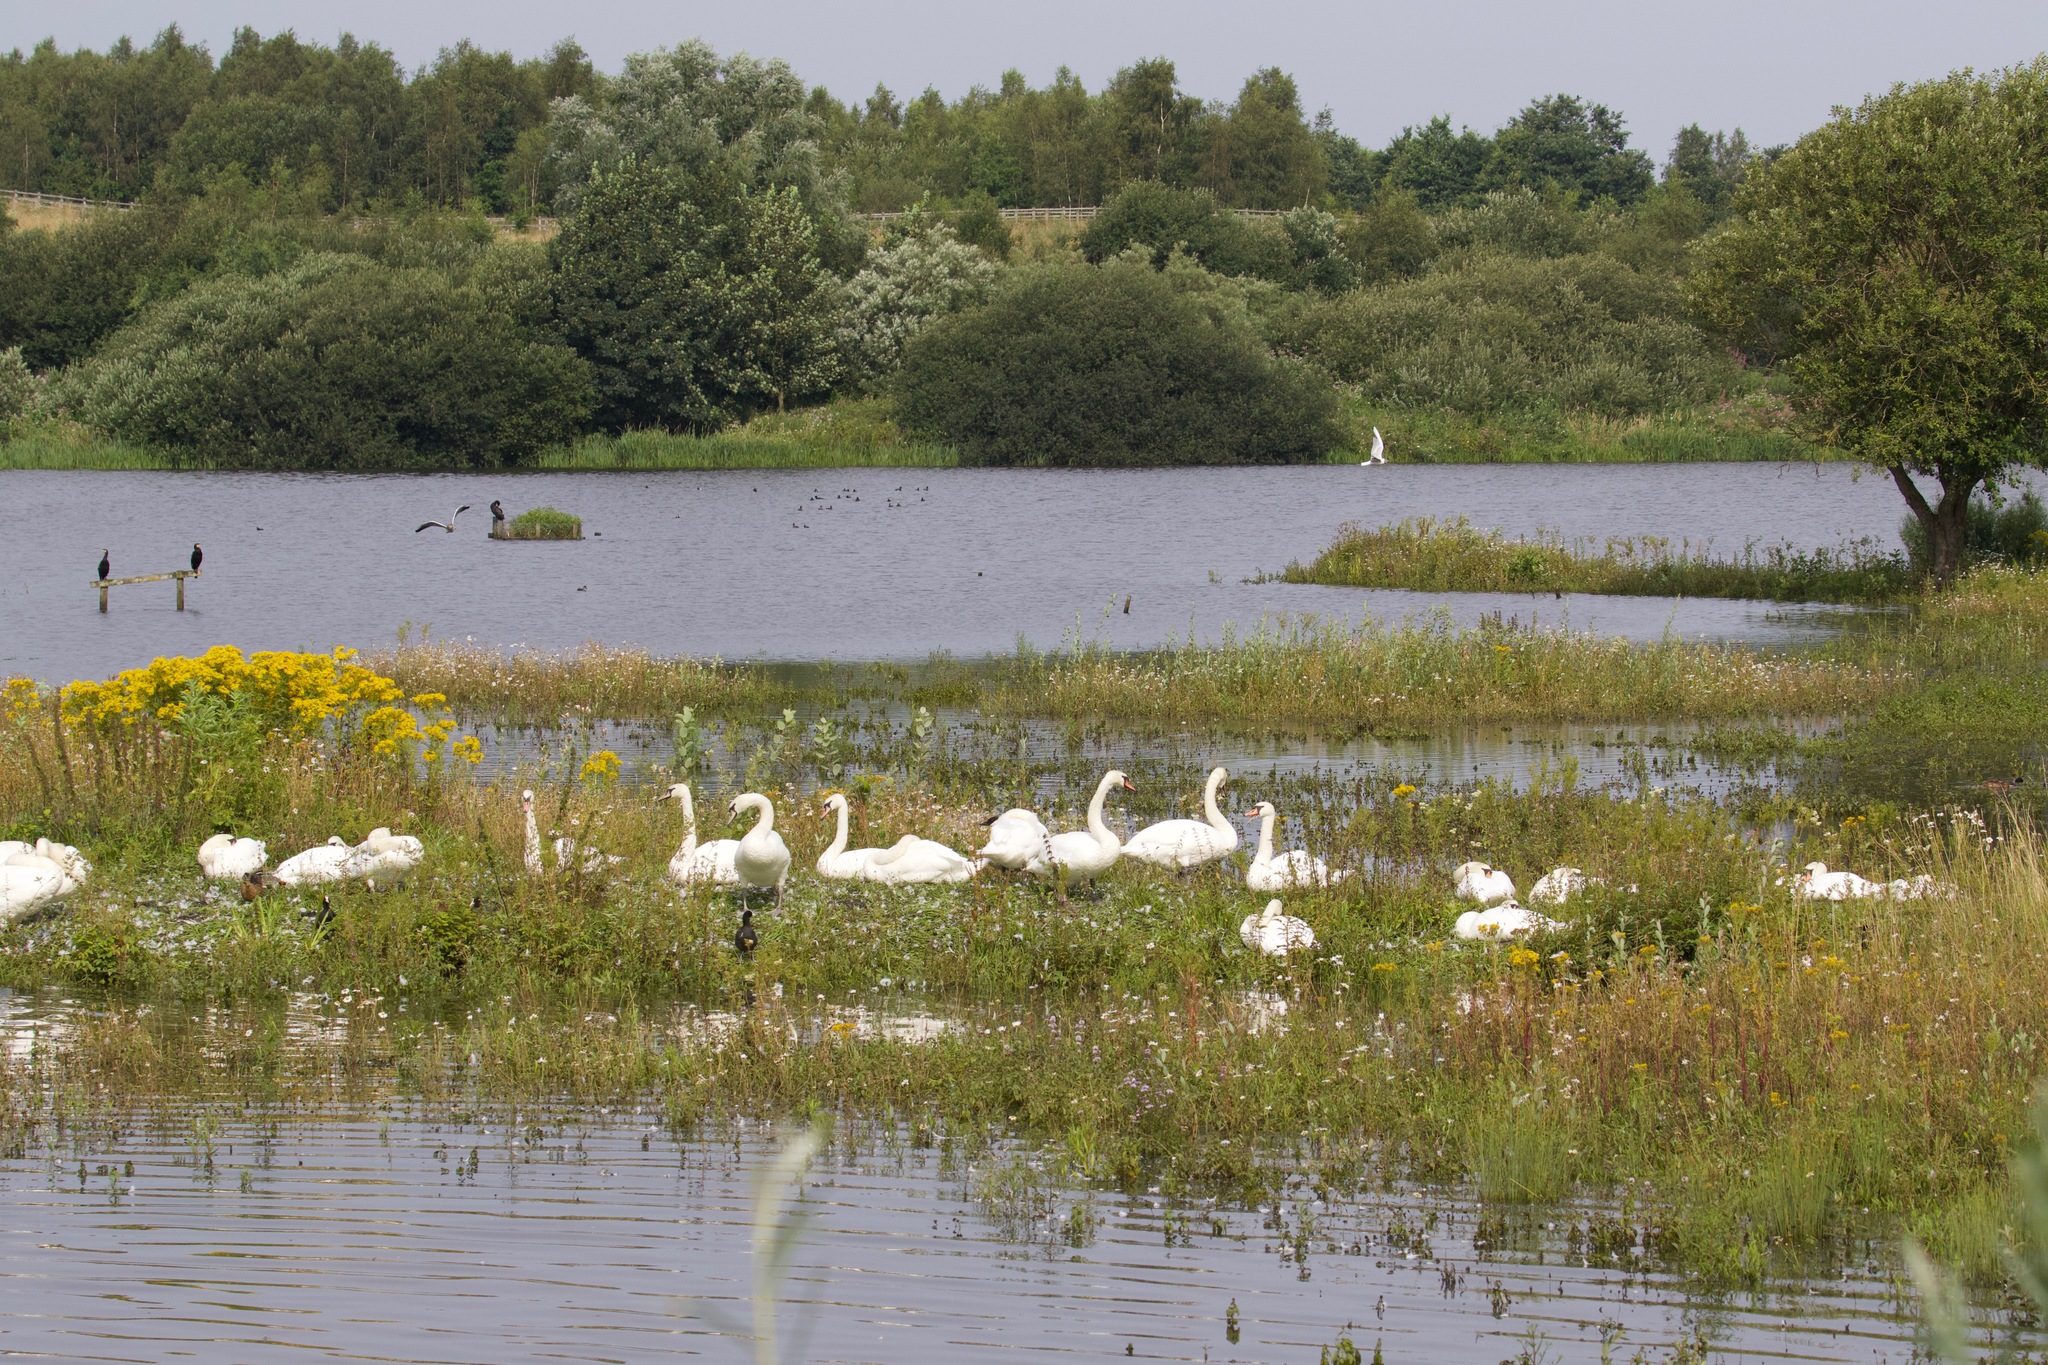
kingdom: Animalia
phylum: Chordata
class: Aves
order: Anseriformes
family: Anatidae
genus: Cygnus
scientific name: Cygnus olor
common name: Mute swan
